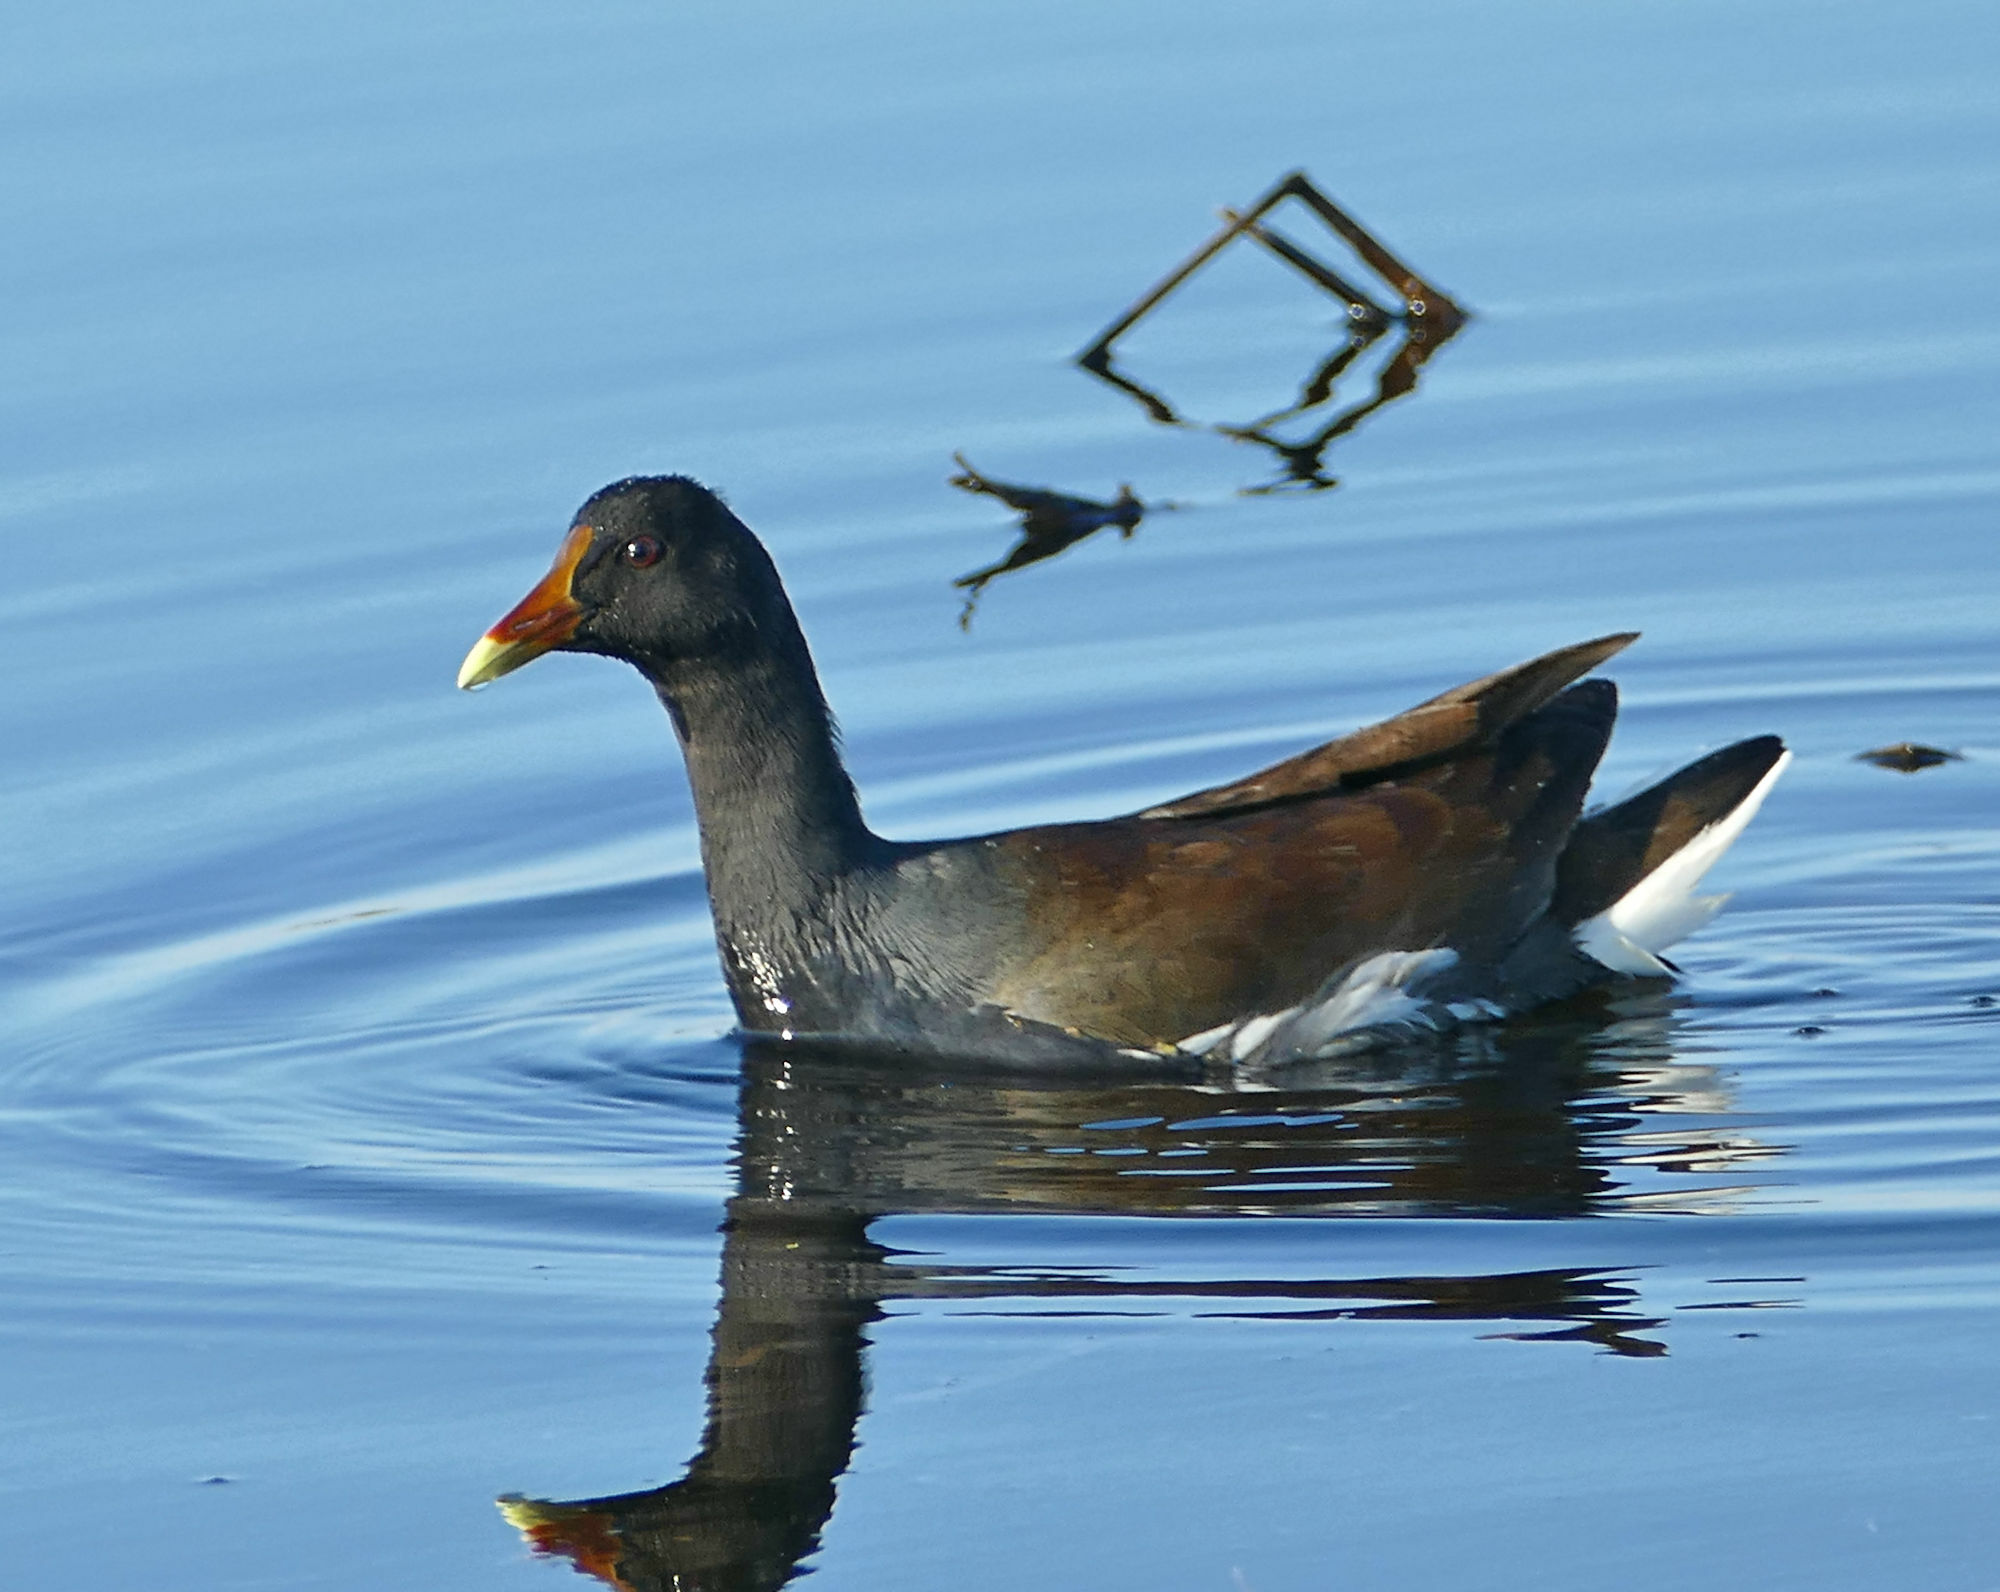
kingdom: Animalia
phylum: Chordata
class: Aves
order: Gruiformes
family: Rallidae
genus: Gallinula
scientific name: Gallinula chloropus
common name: Common moorhen
